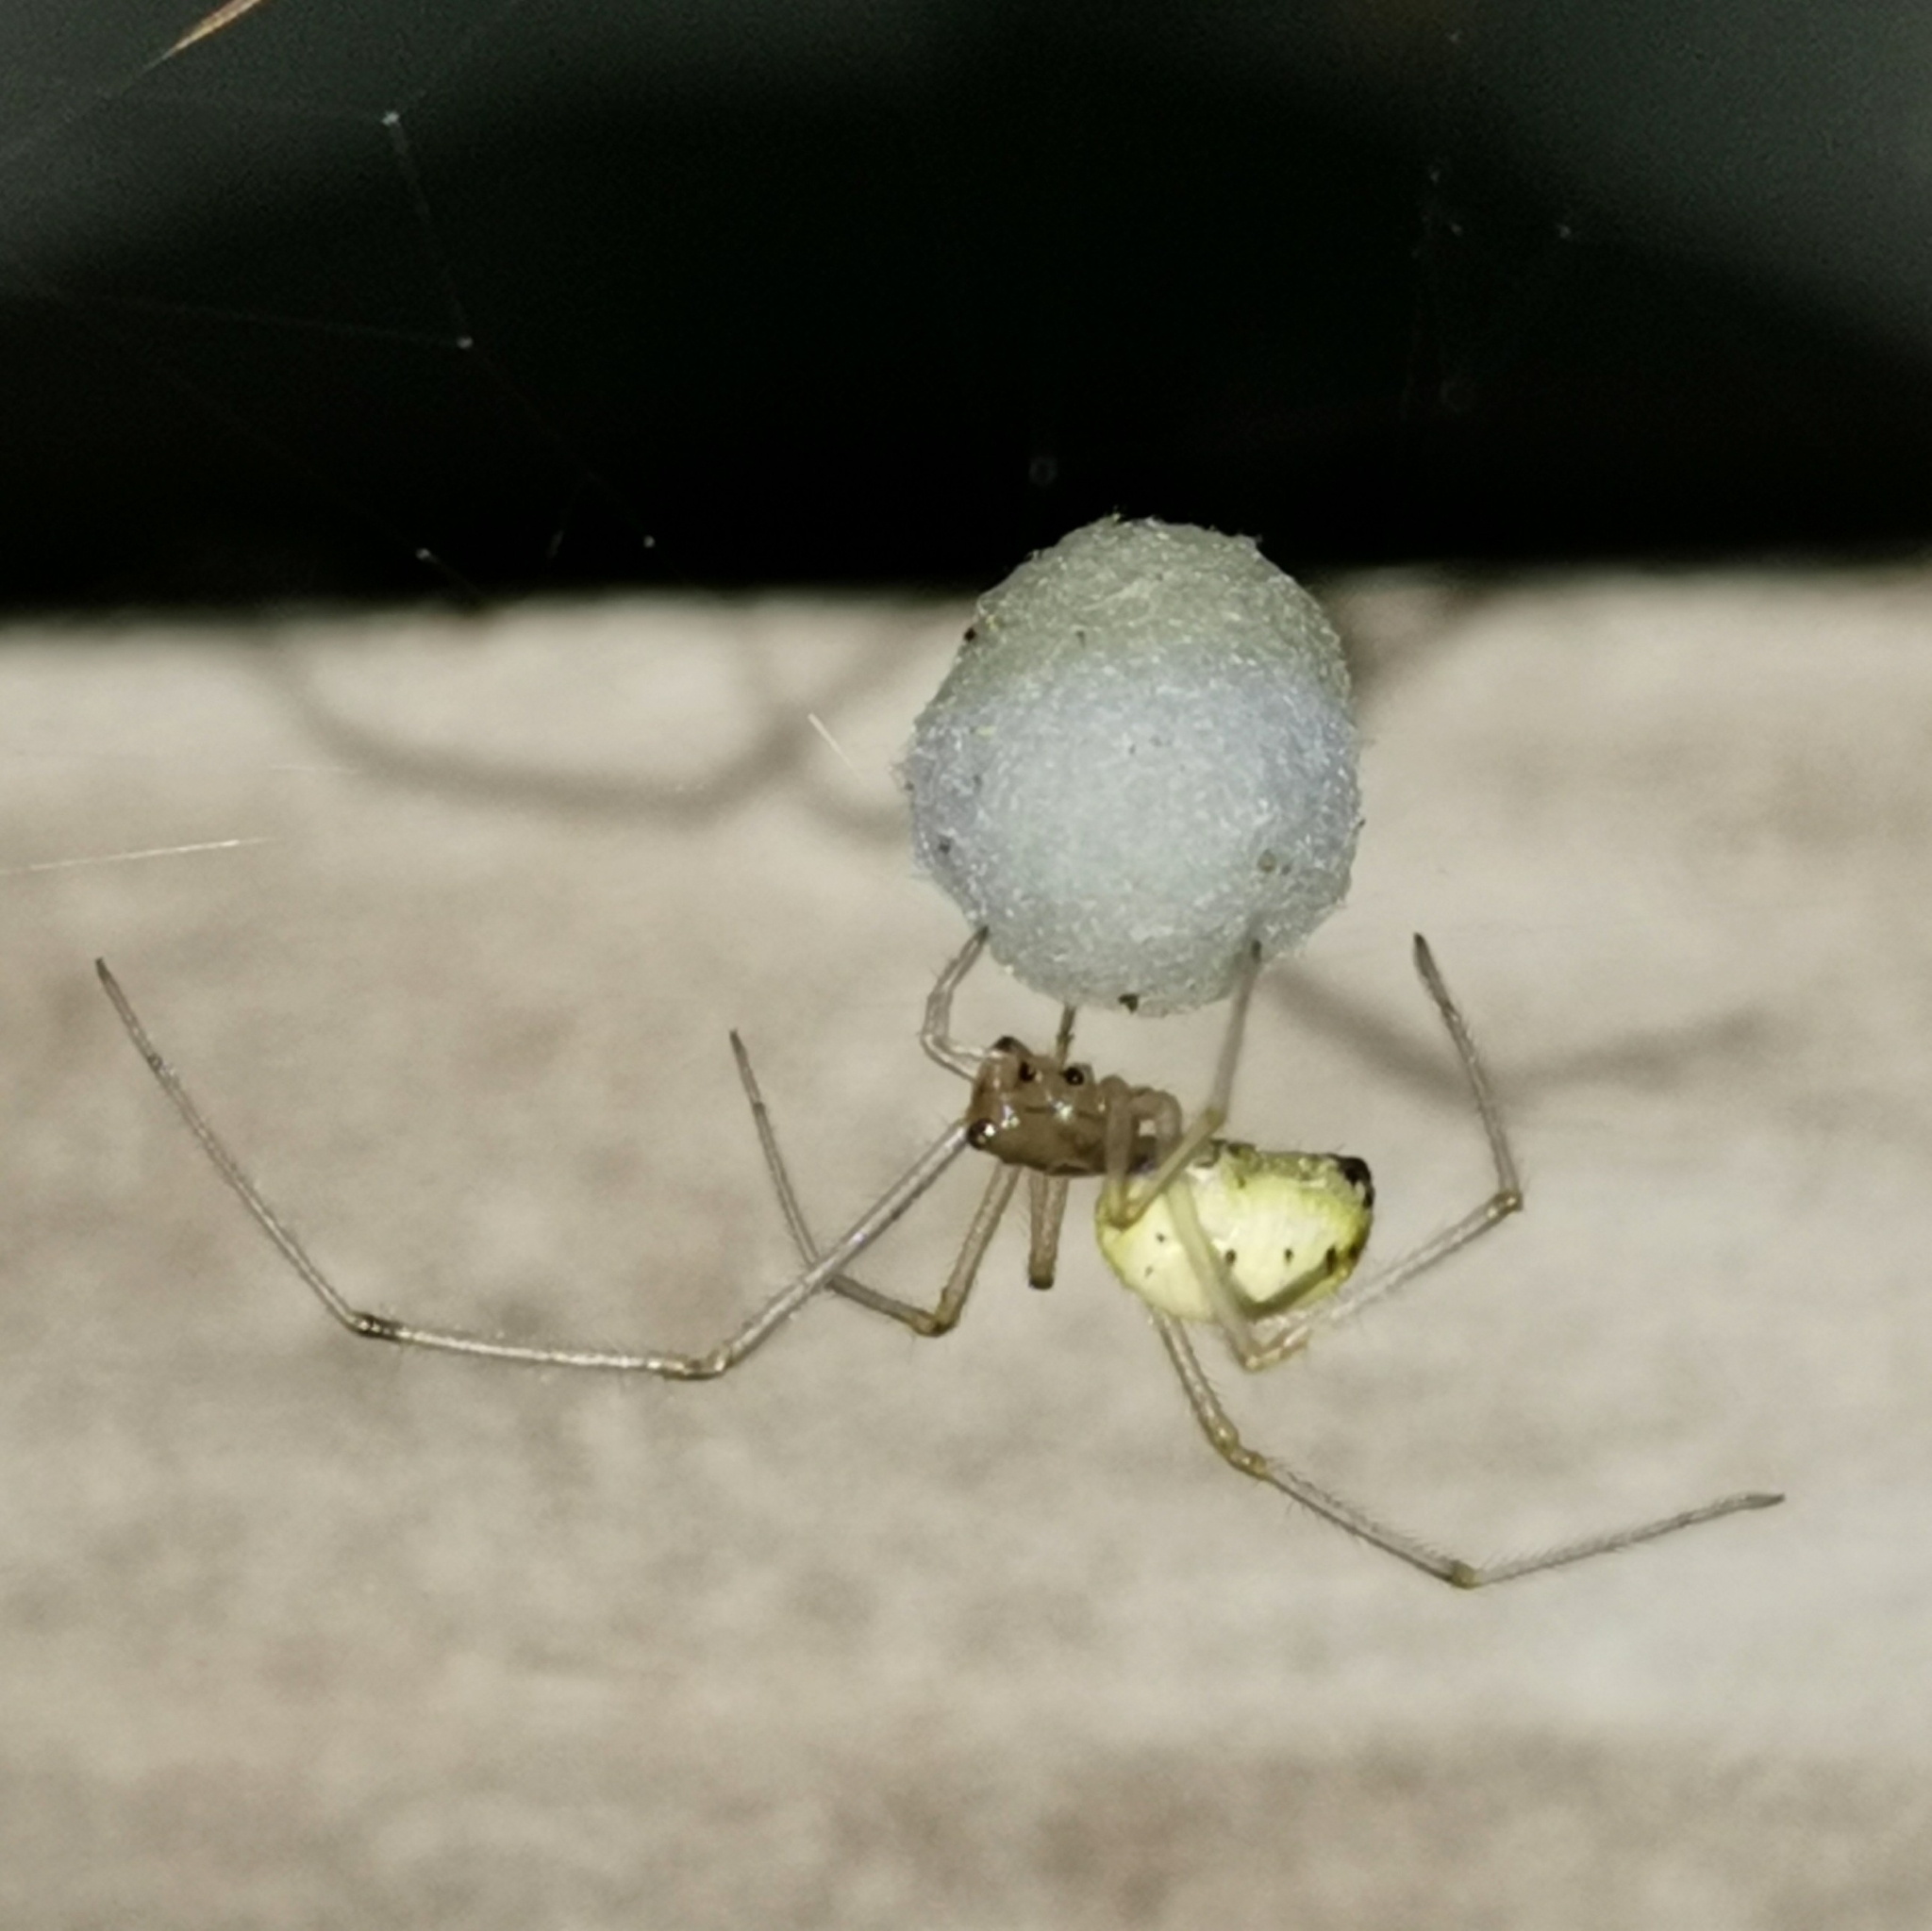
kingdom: Animalia
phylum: Arthropoda
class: Arachnida
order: Araneae
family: Theridiidae
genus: Enoplognatha
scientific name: Enoplognatha ovata
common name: Common candy-striped spider
